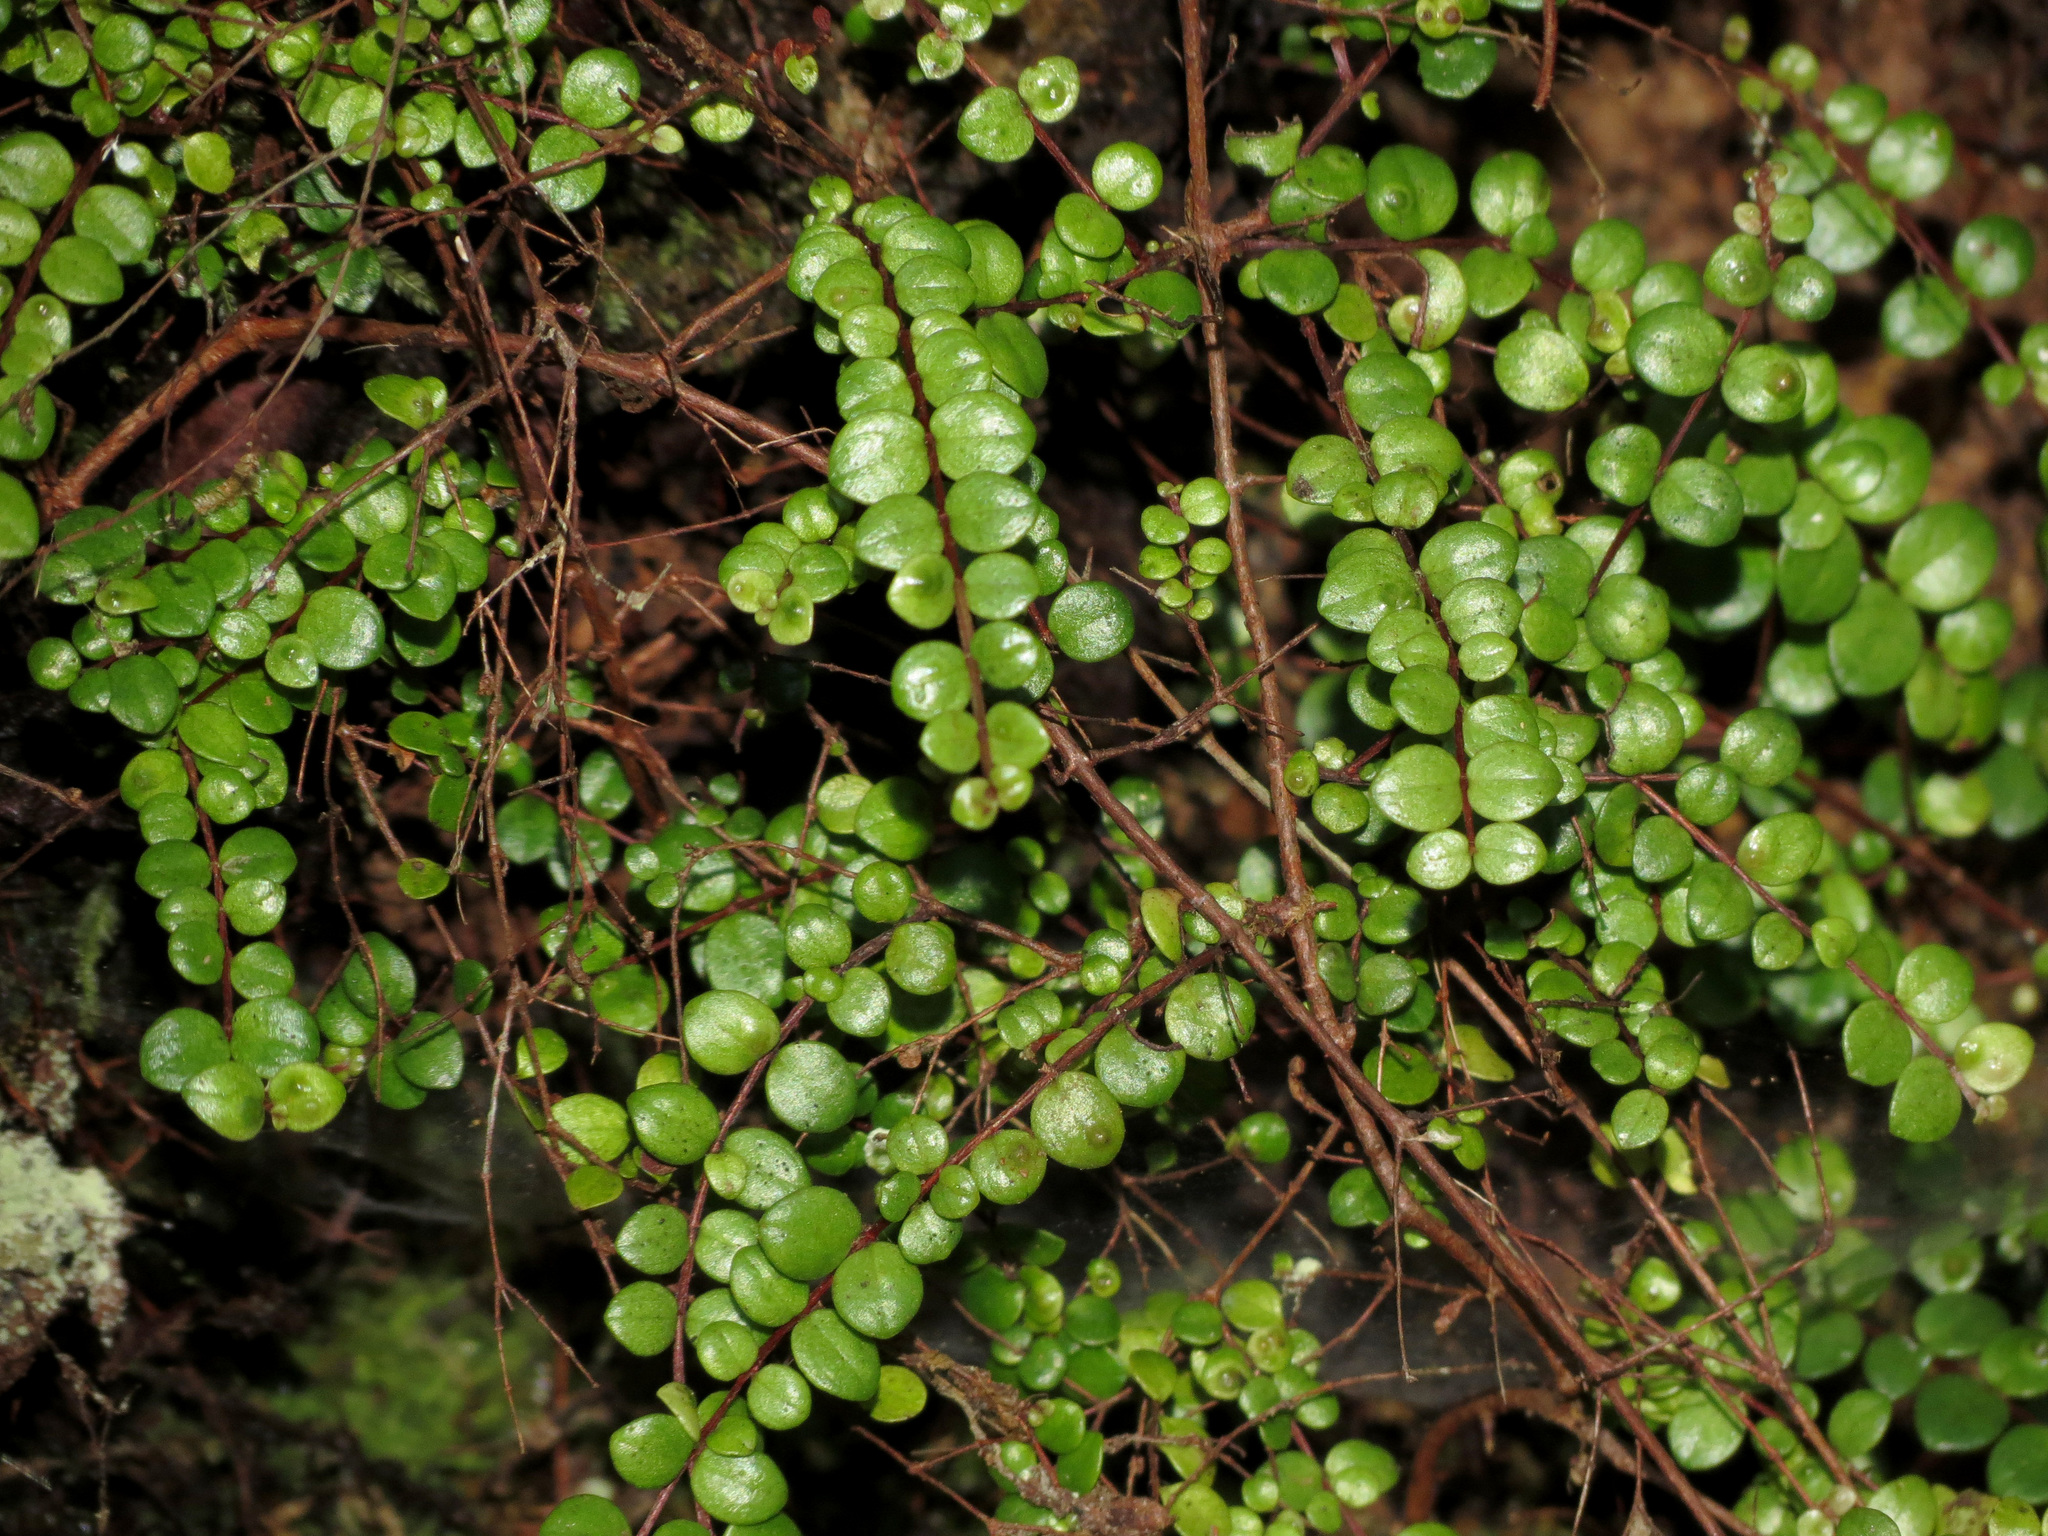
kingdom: Plantae
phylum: Tracheophyta
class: Magnoliopsida
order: Myrtales
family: Myrtaceae
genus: Metrosideros
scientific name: Metrosideros perforata
